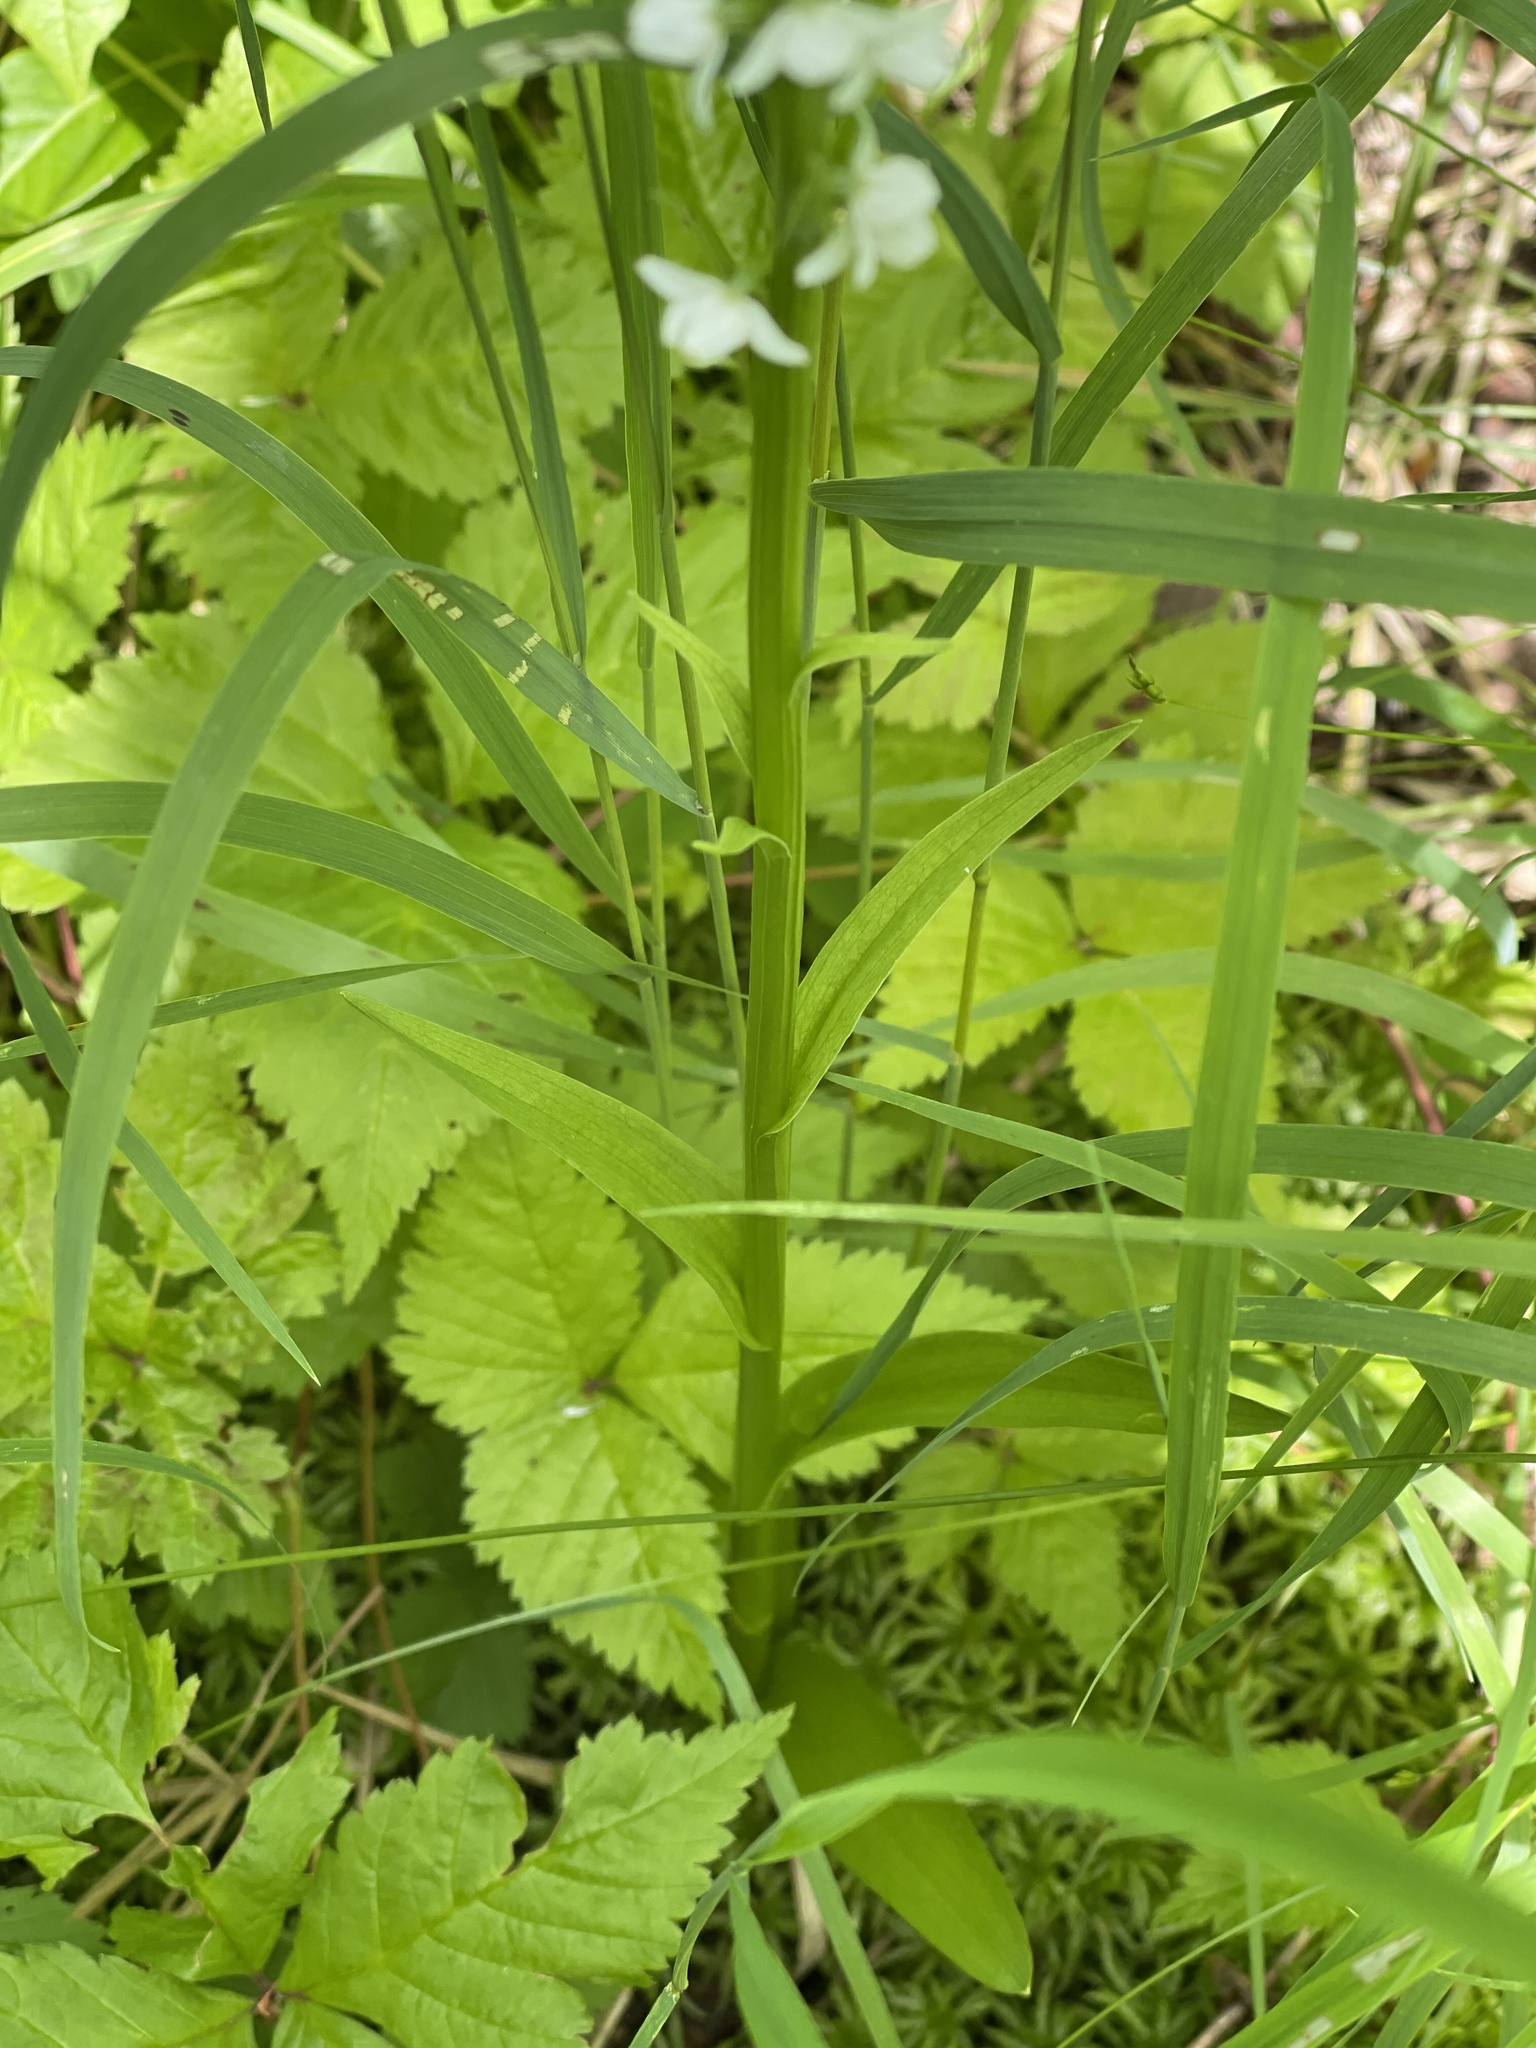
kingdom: Plantae
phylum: Tracheophyta
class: Liliopsida
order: Asparagales
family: Orchidaceae
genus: Platanthera
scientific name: Platanthera dilatata
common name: Bog candles
